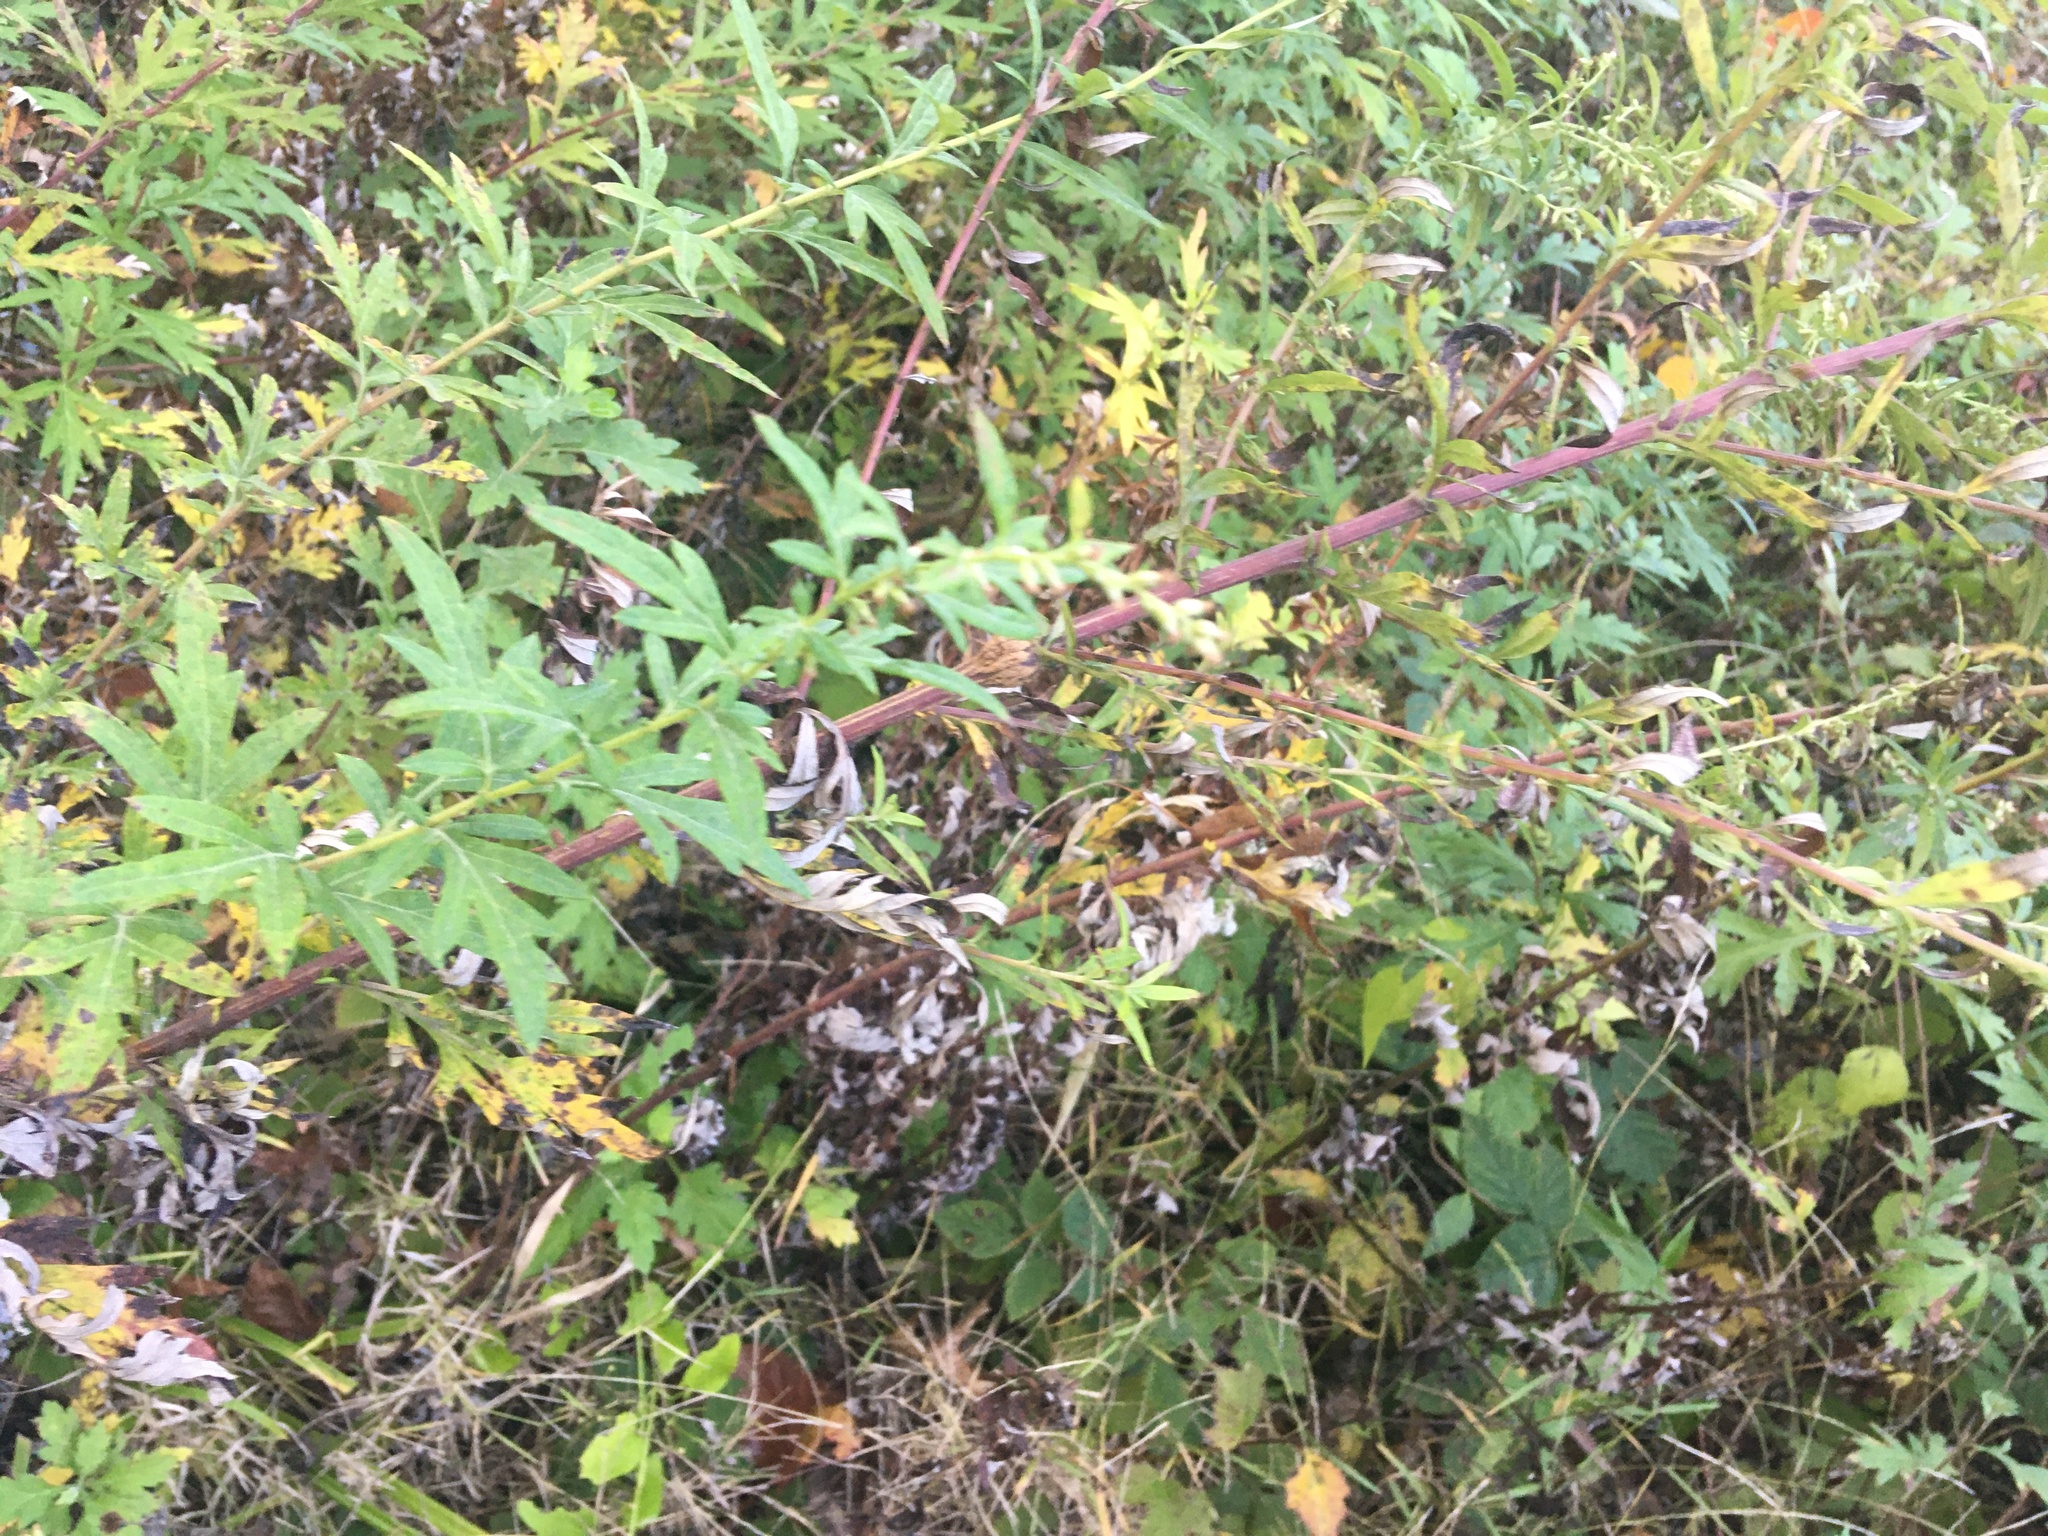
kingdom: Plantae
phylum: Tracheophyta
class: Magnoliopsida
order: Asterales
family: Asteraceae
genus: Artemisia
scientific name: Artemisia vulgaris
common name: Mugwort
